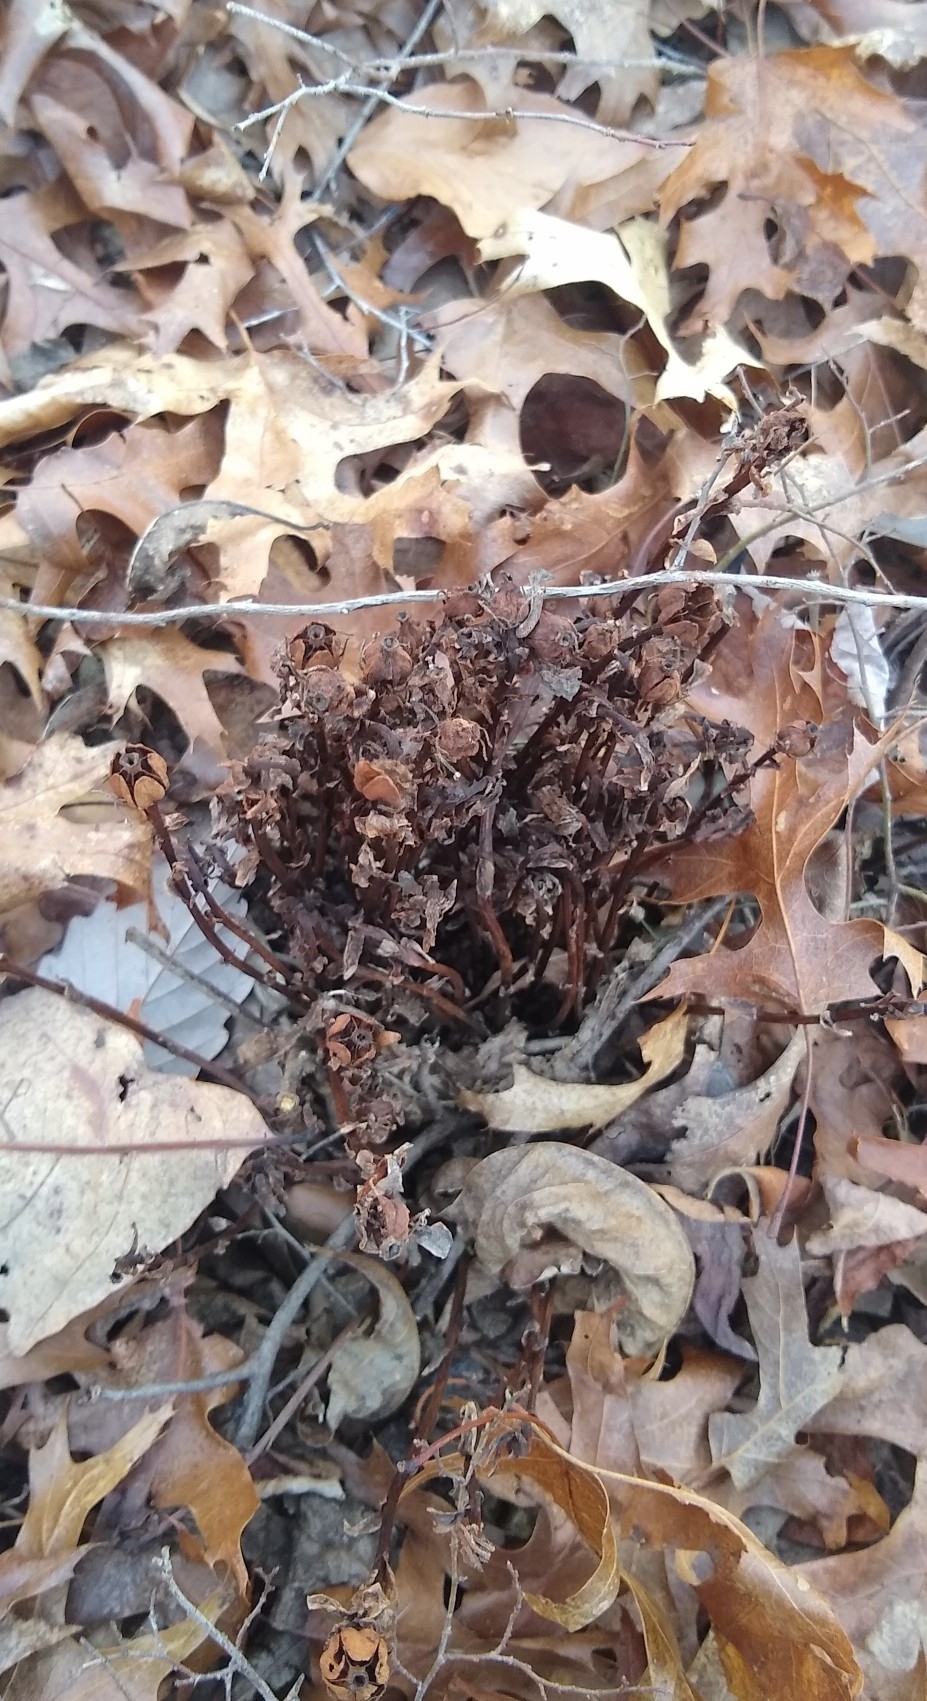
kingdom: Plantae
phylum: Tracheophyta
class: Magnoliopsida
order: Ericales
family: Ericaceae
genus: Monotropa
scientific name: Monotropa uniflora
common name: Convulsion root
